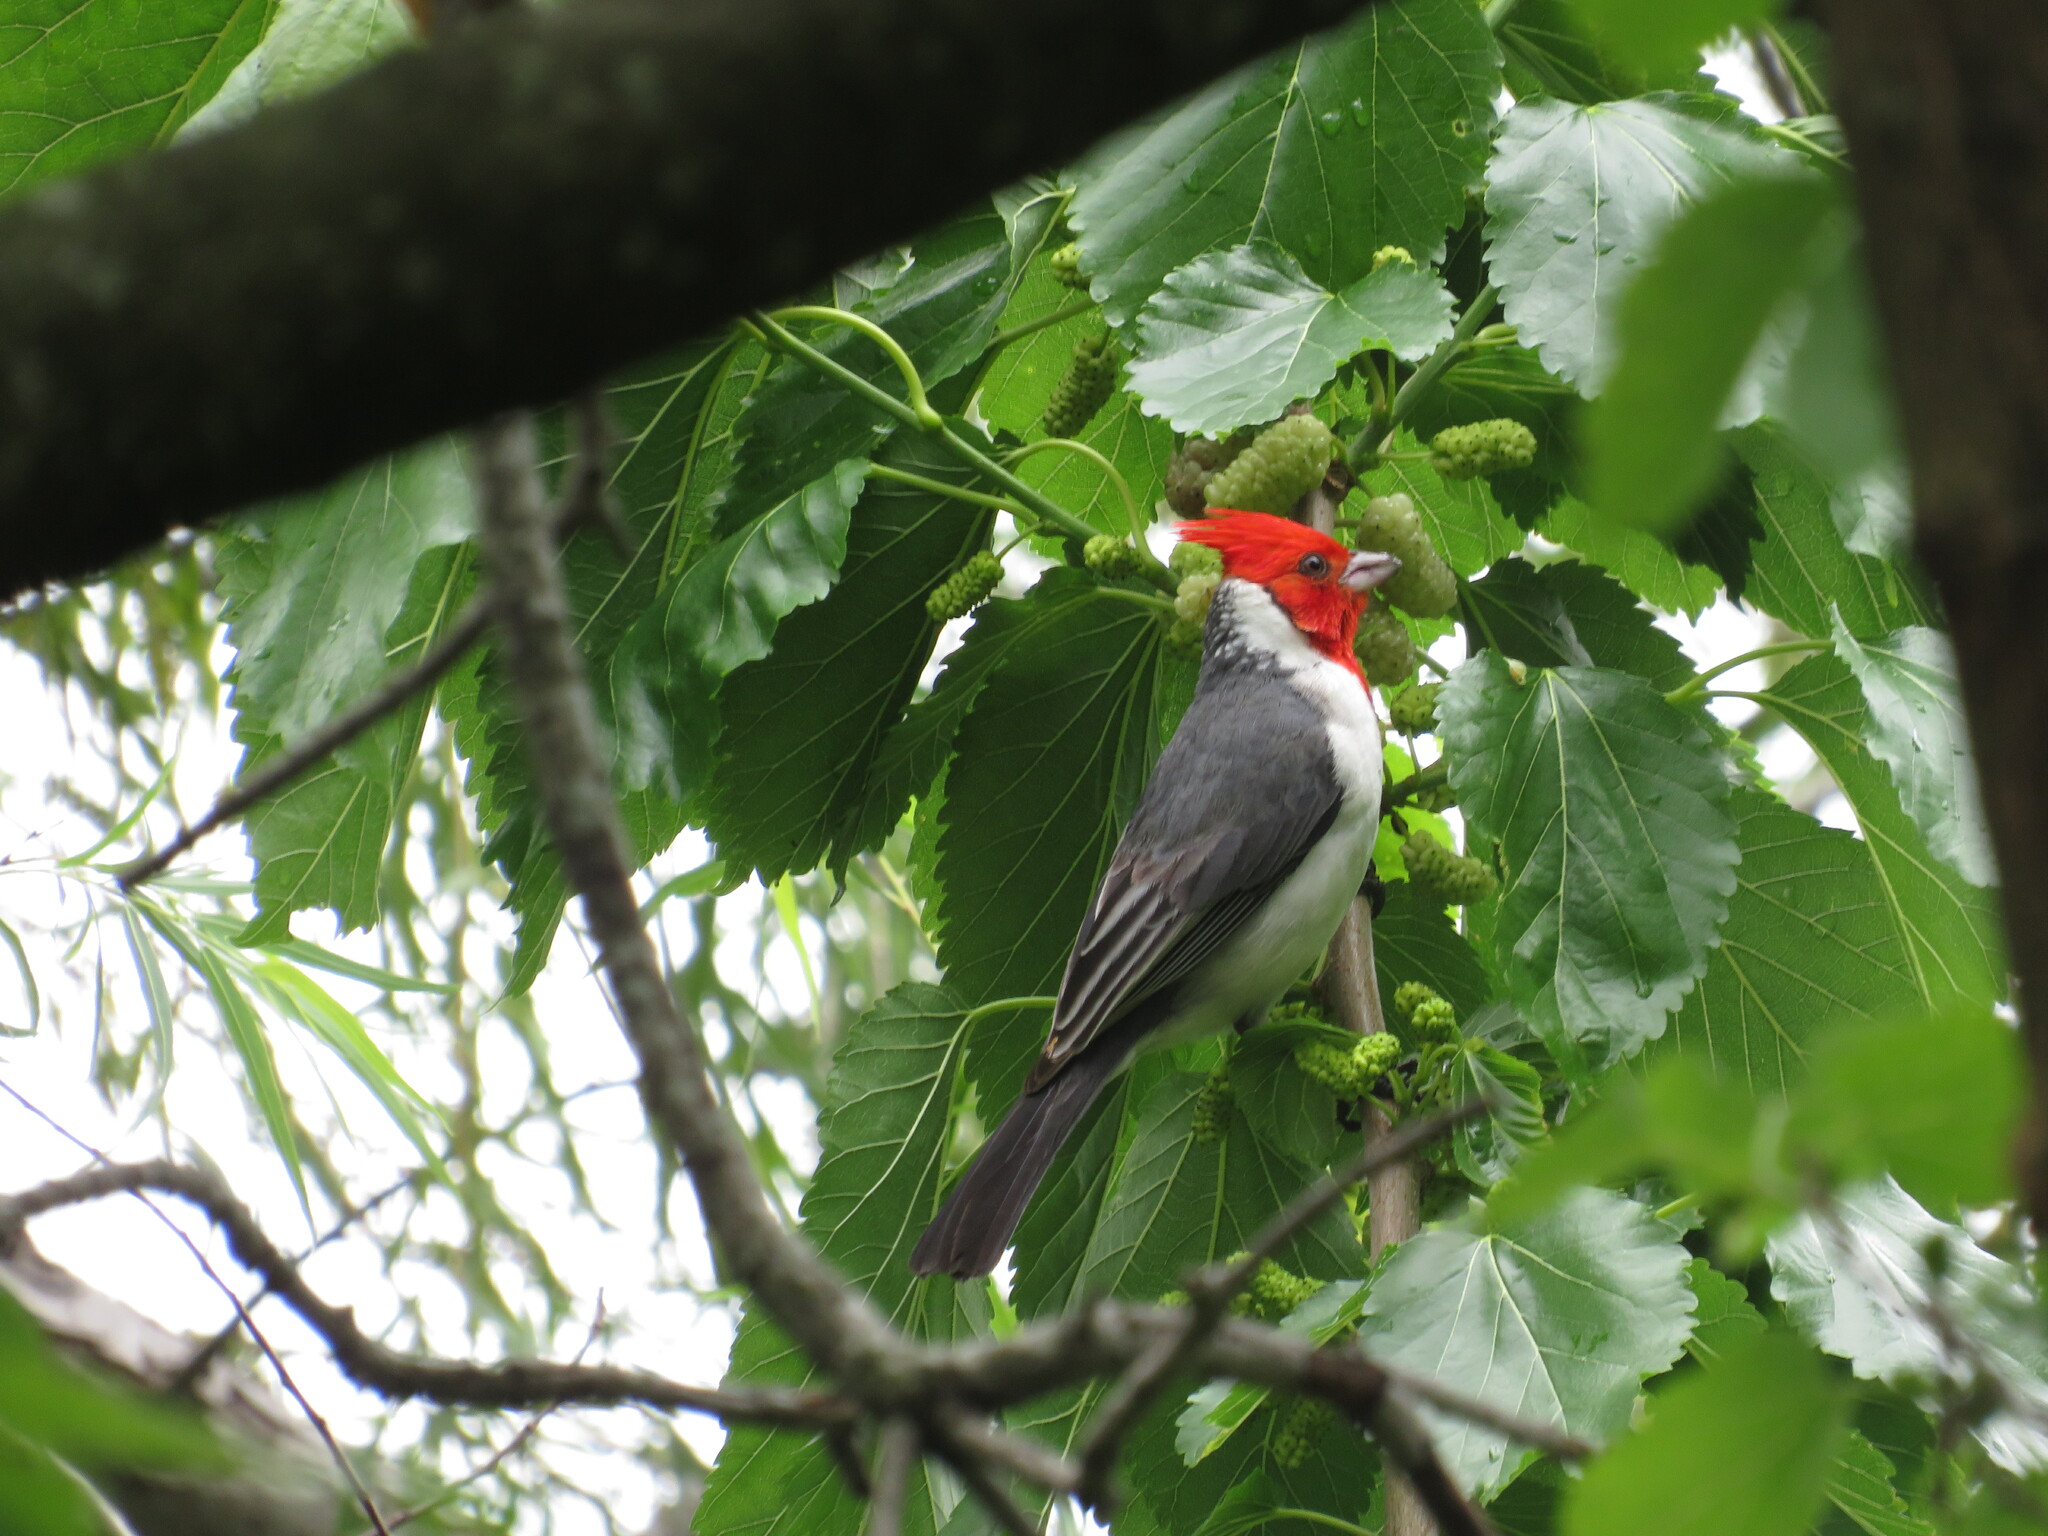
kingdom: Animalia
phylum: Chordata
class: Aves
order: Passeriformes
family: Thraupidae
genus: Paroaria
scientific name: Paroaria coronata
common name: Red-crested cardinal
